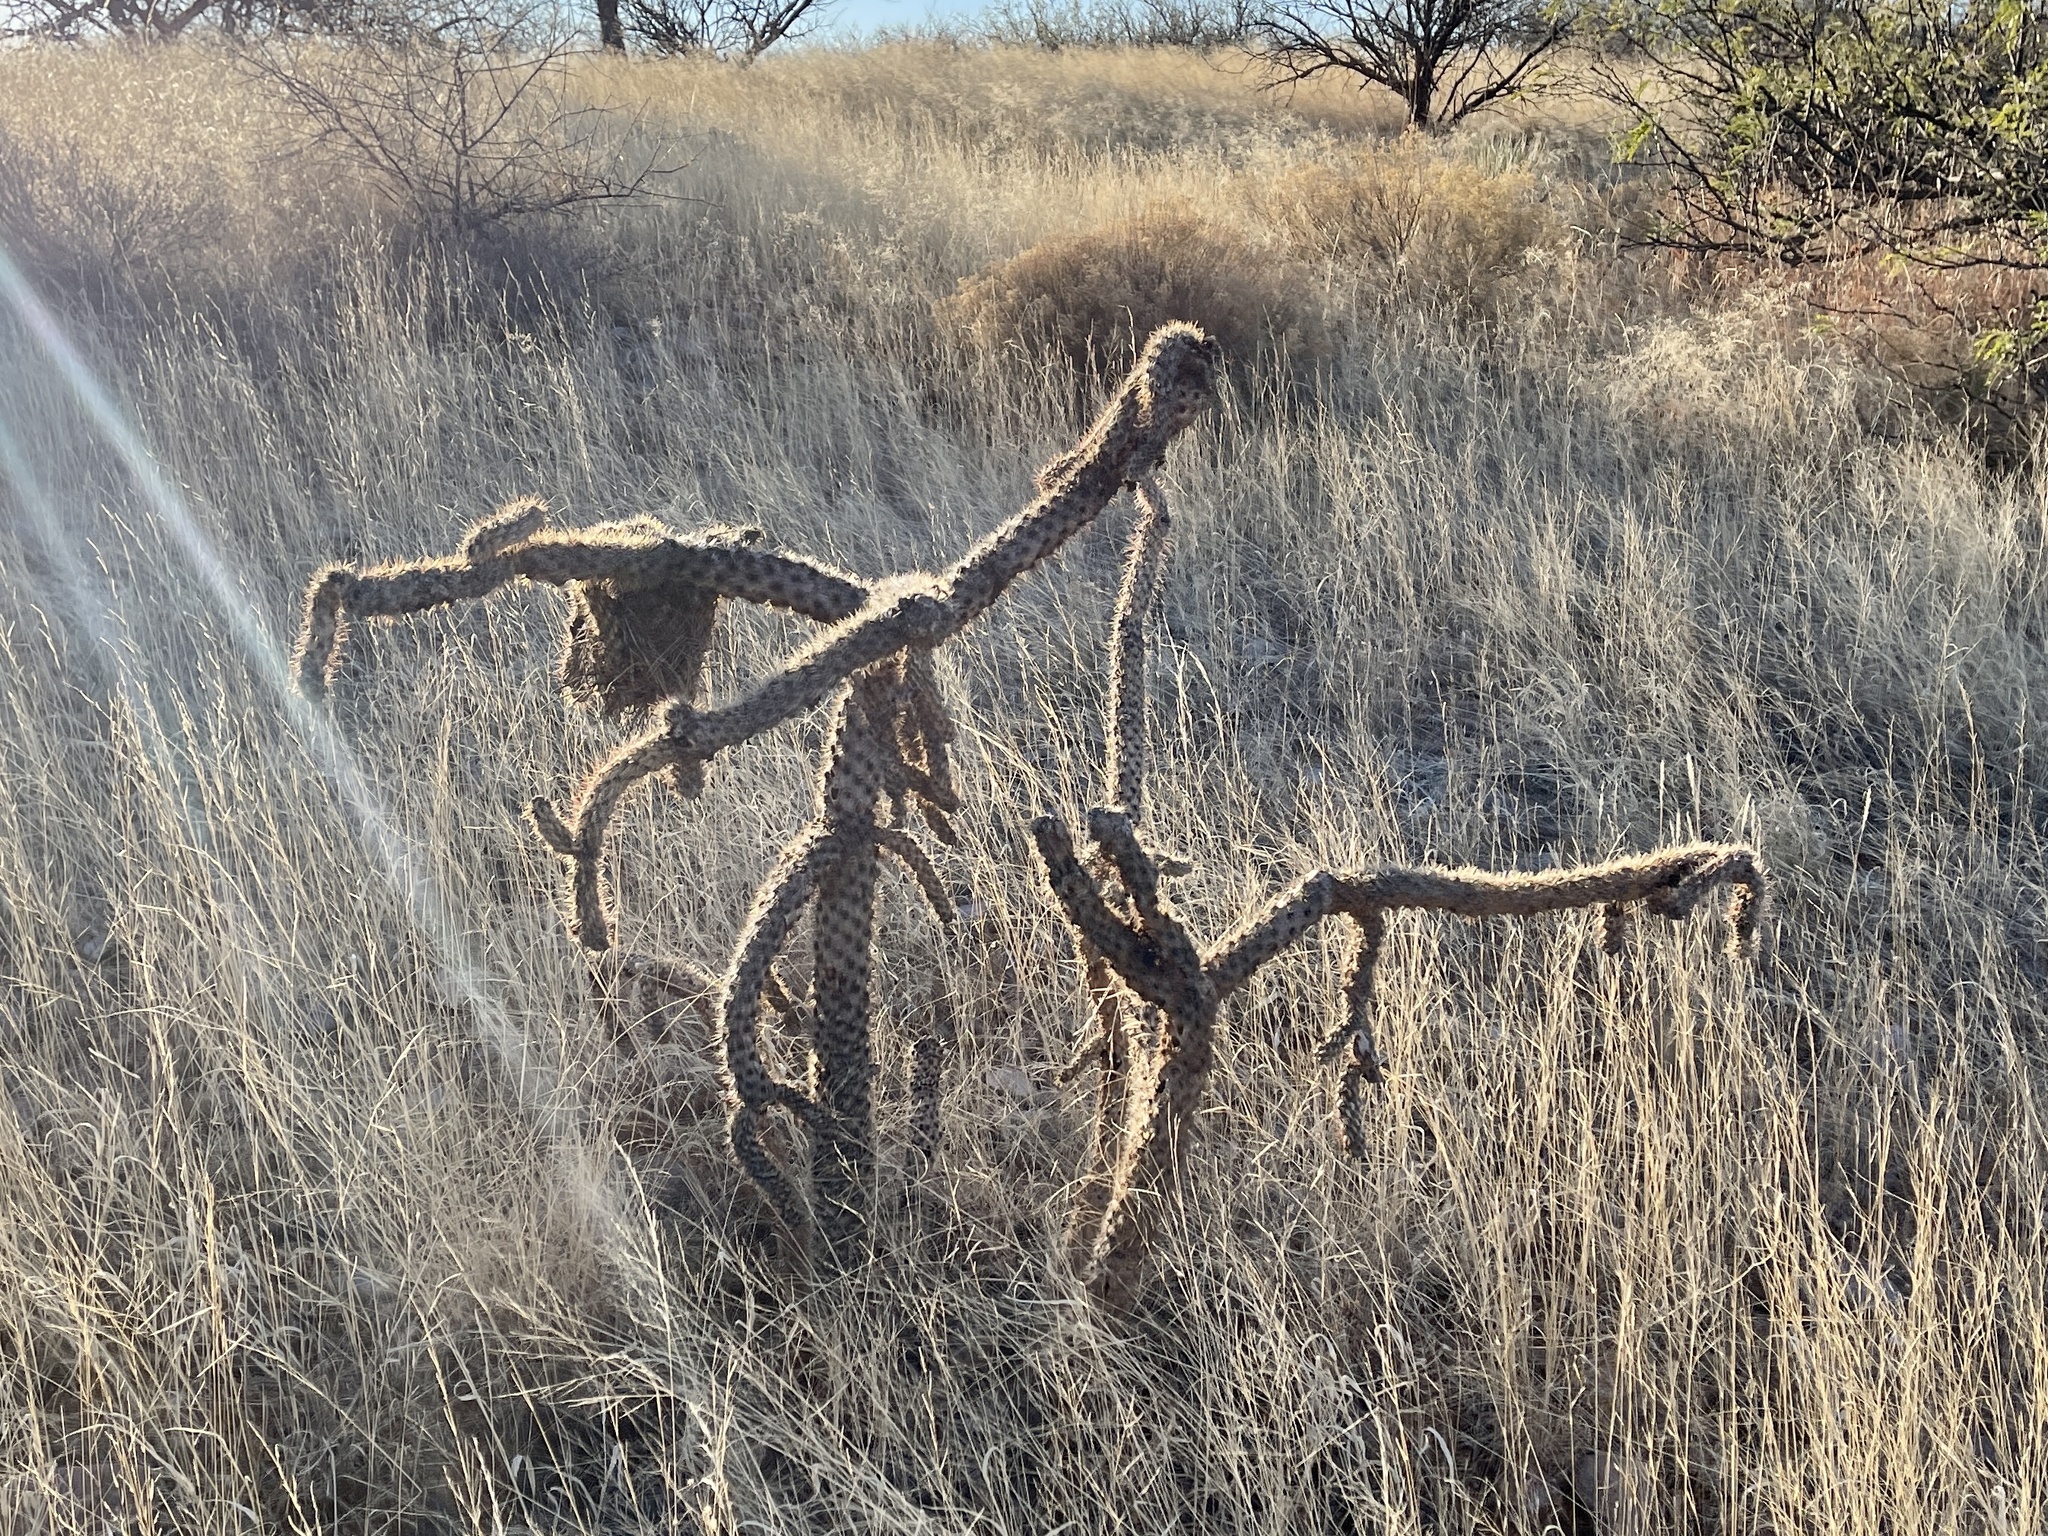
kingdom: Plantae
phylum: Tracheophyta
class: Magnoliopsida
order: Caryophyllales
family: Cactaceae
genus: Cylindropuntia
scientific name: Cylindropuntia imbricata
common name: Candelabrum cactus
